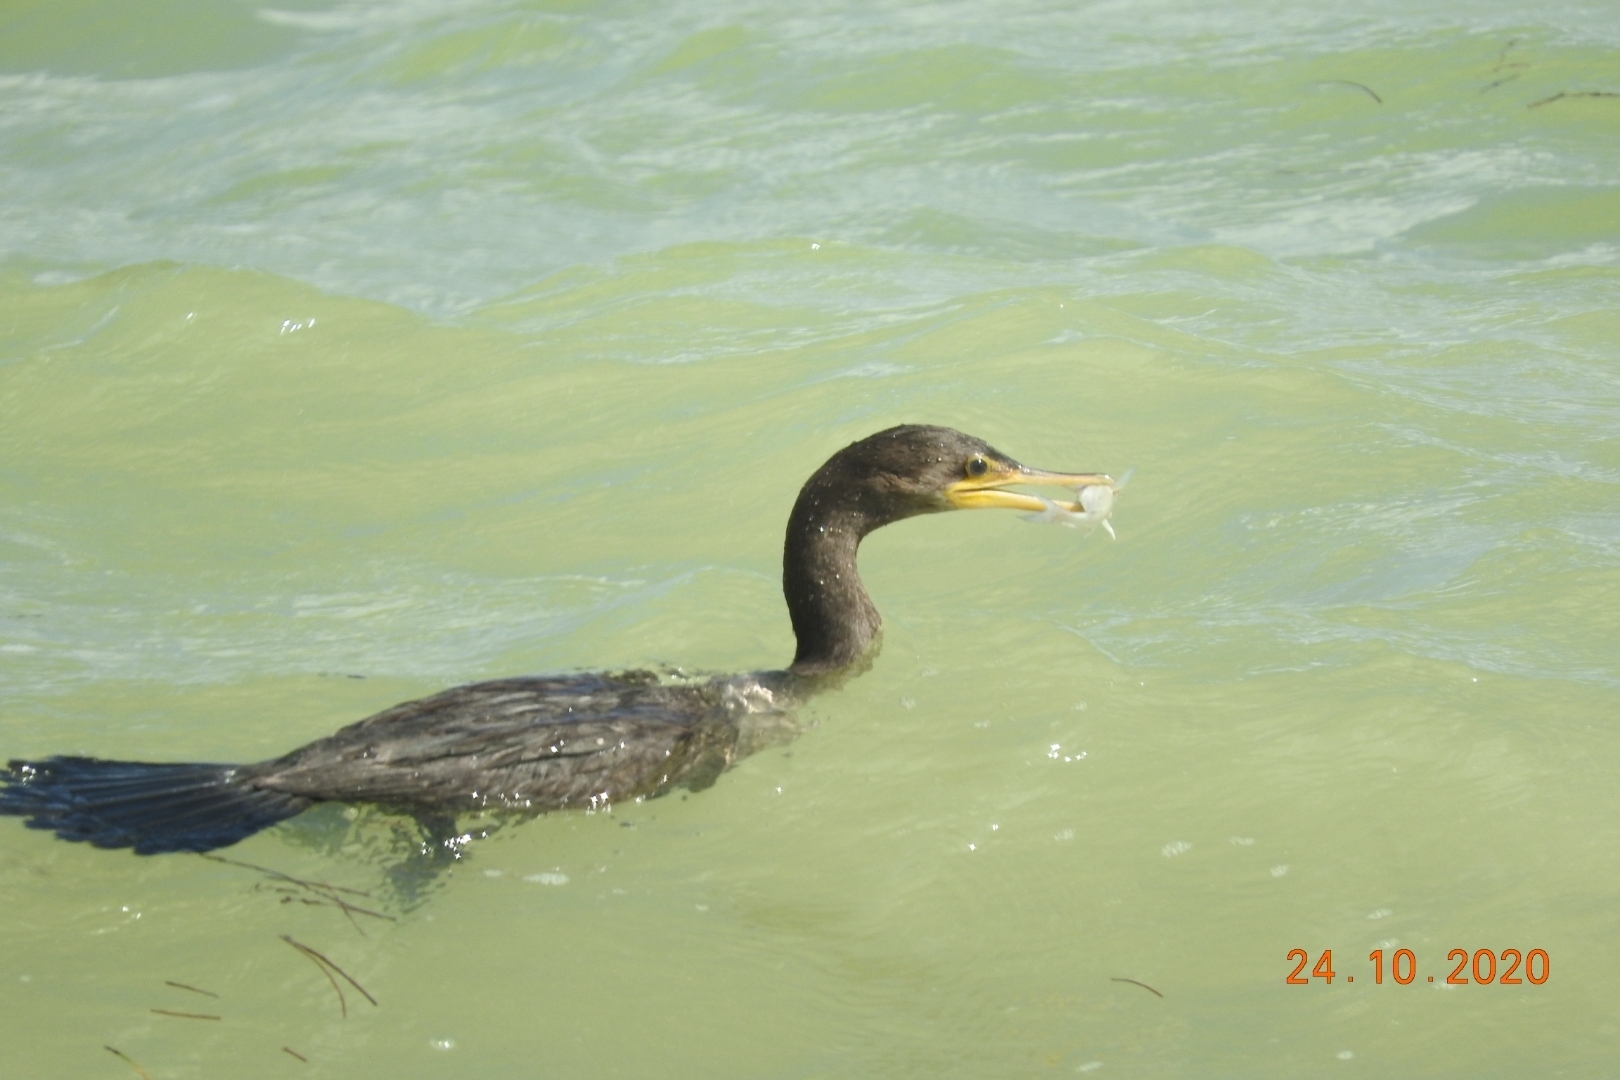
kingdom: Animalia
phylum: Chordata
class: Aves
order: Suliformes
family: Phalacrocoracidae
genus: Phalacrocorax
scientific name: Phalacrocorax auritus
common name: Double-crested cormorant
